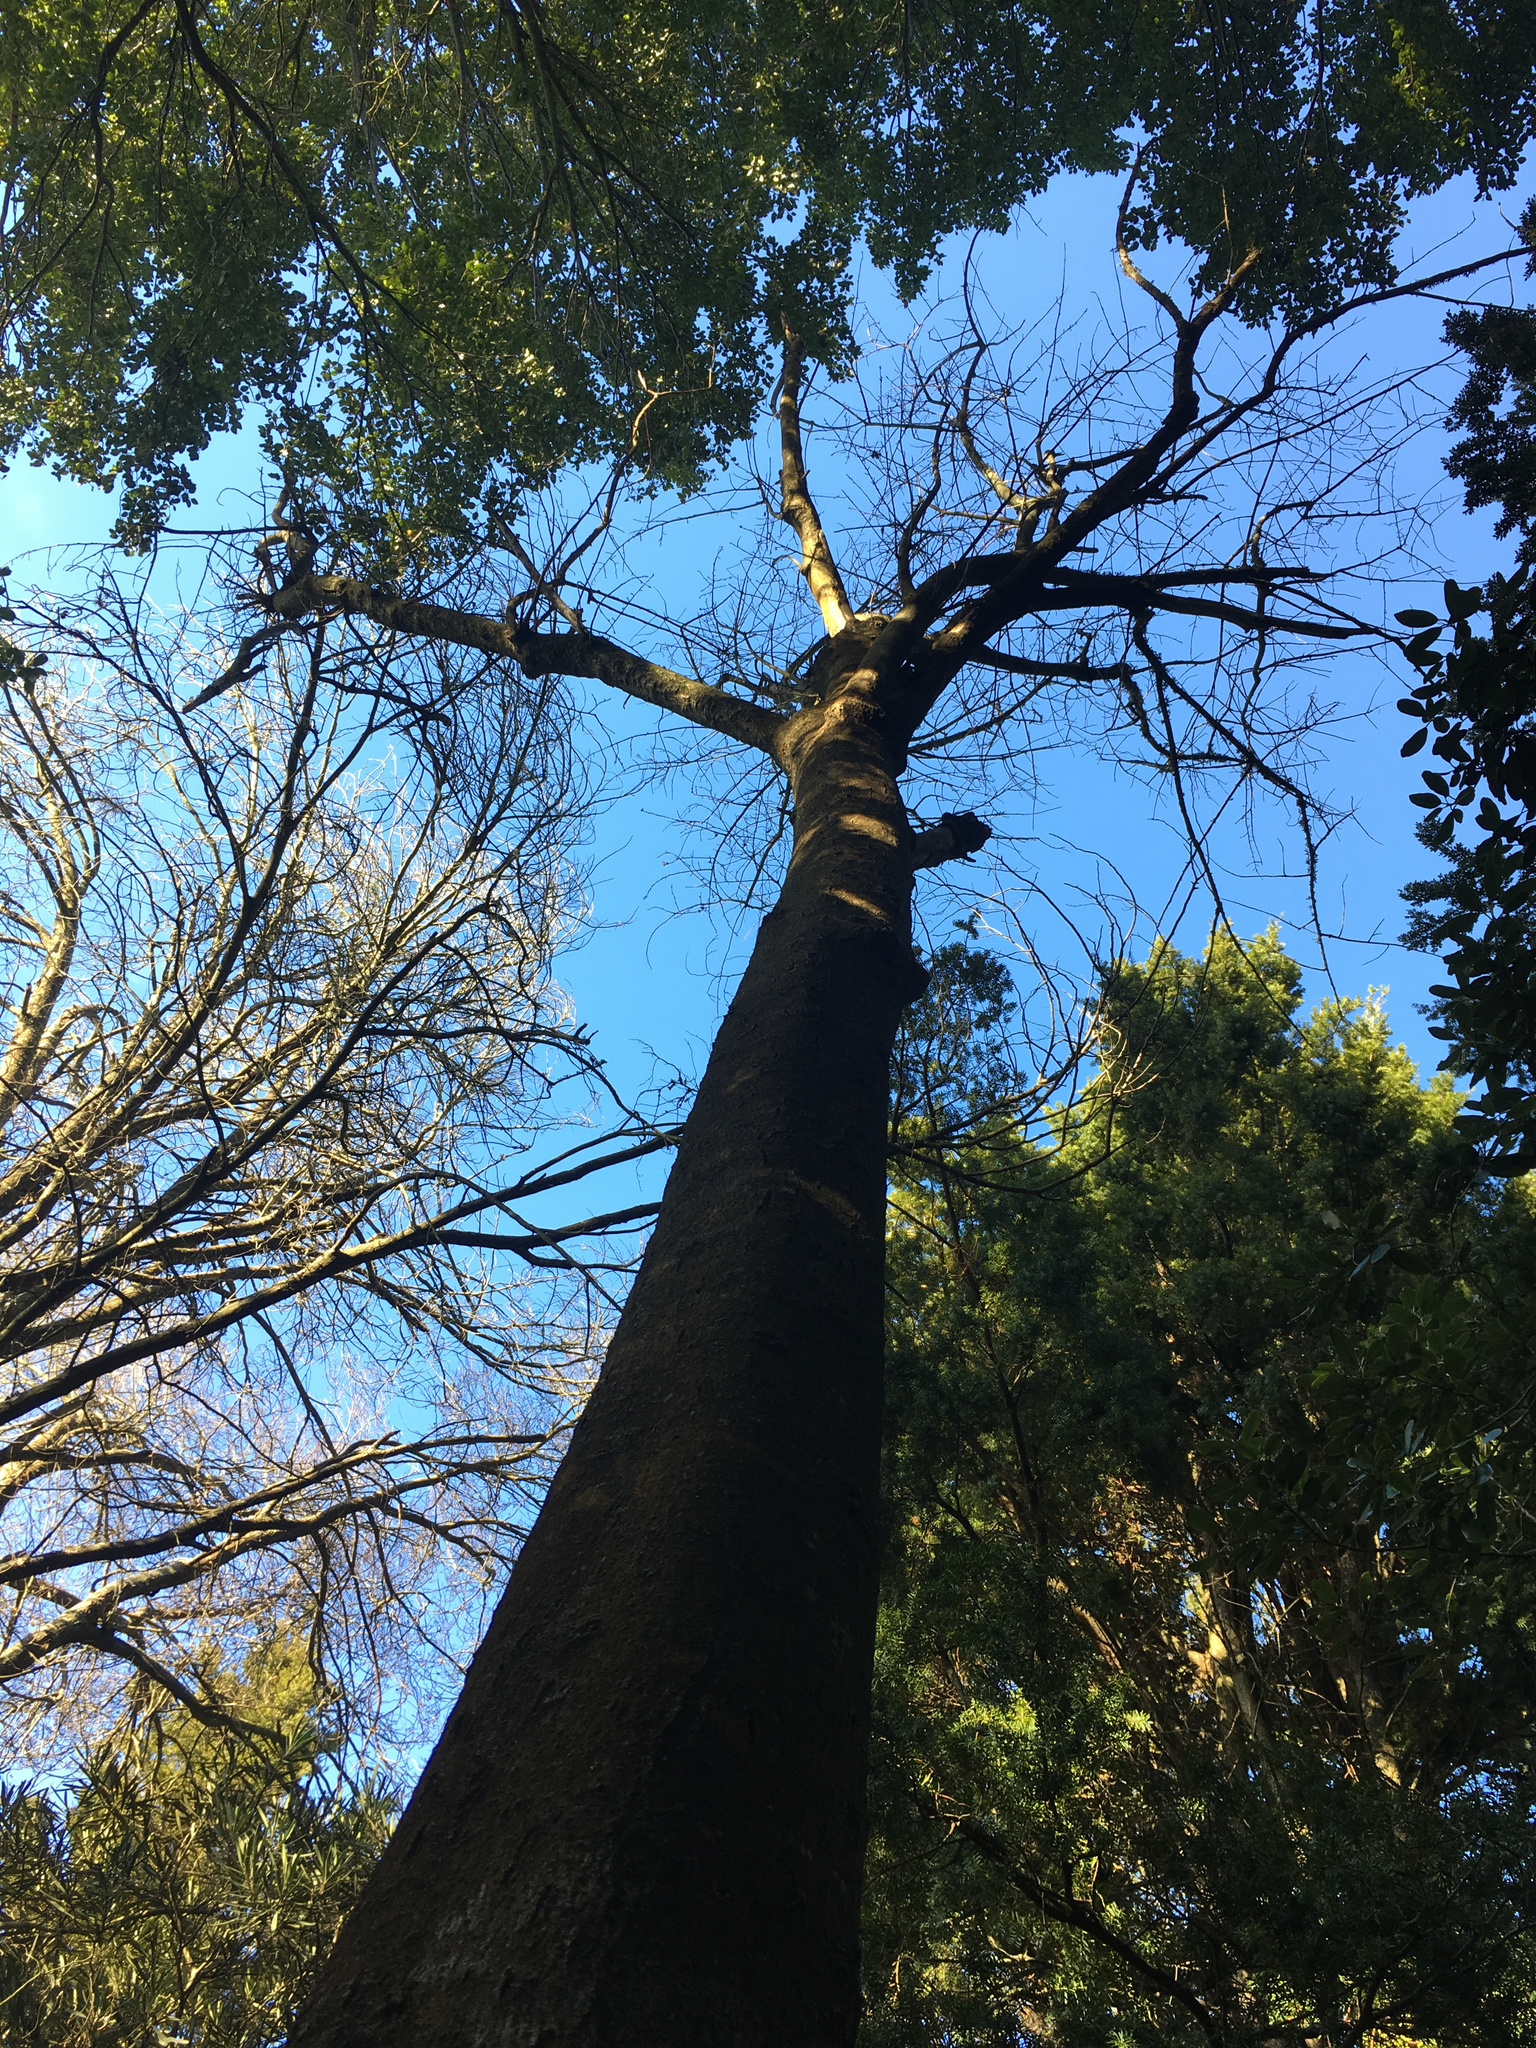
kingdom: Fungi
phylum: Basidiomycota
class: Agaricomycetes
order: Agaricales
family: Tubariaceae
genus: Cyclocybe
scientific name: Cyclocybe parasitica
